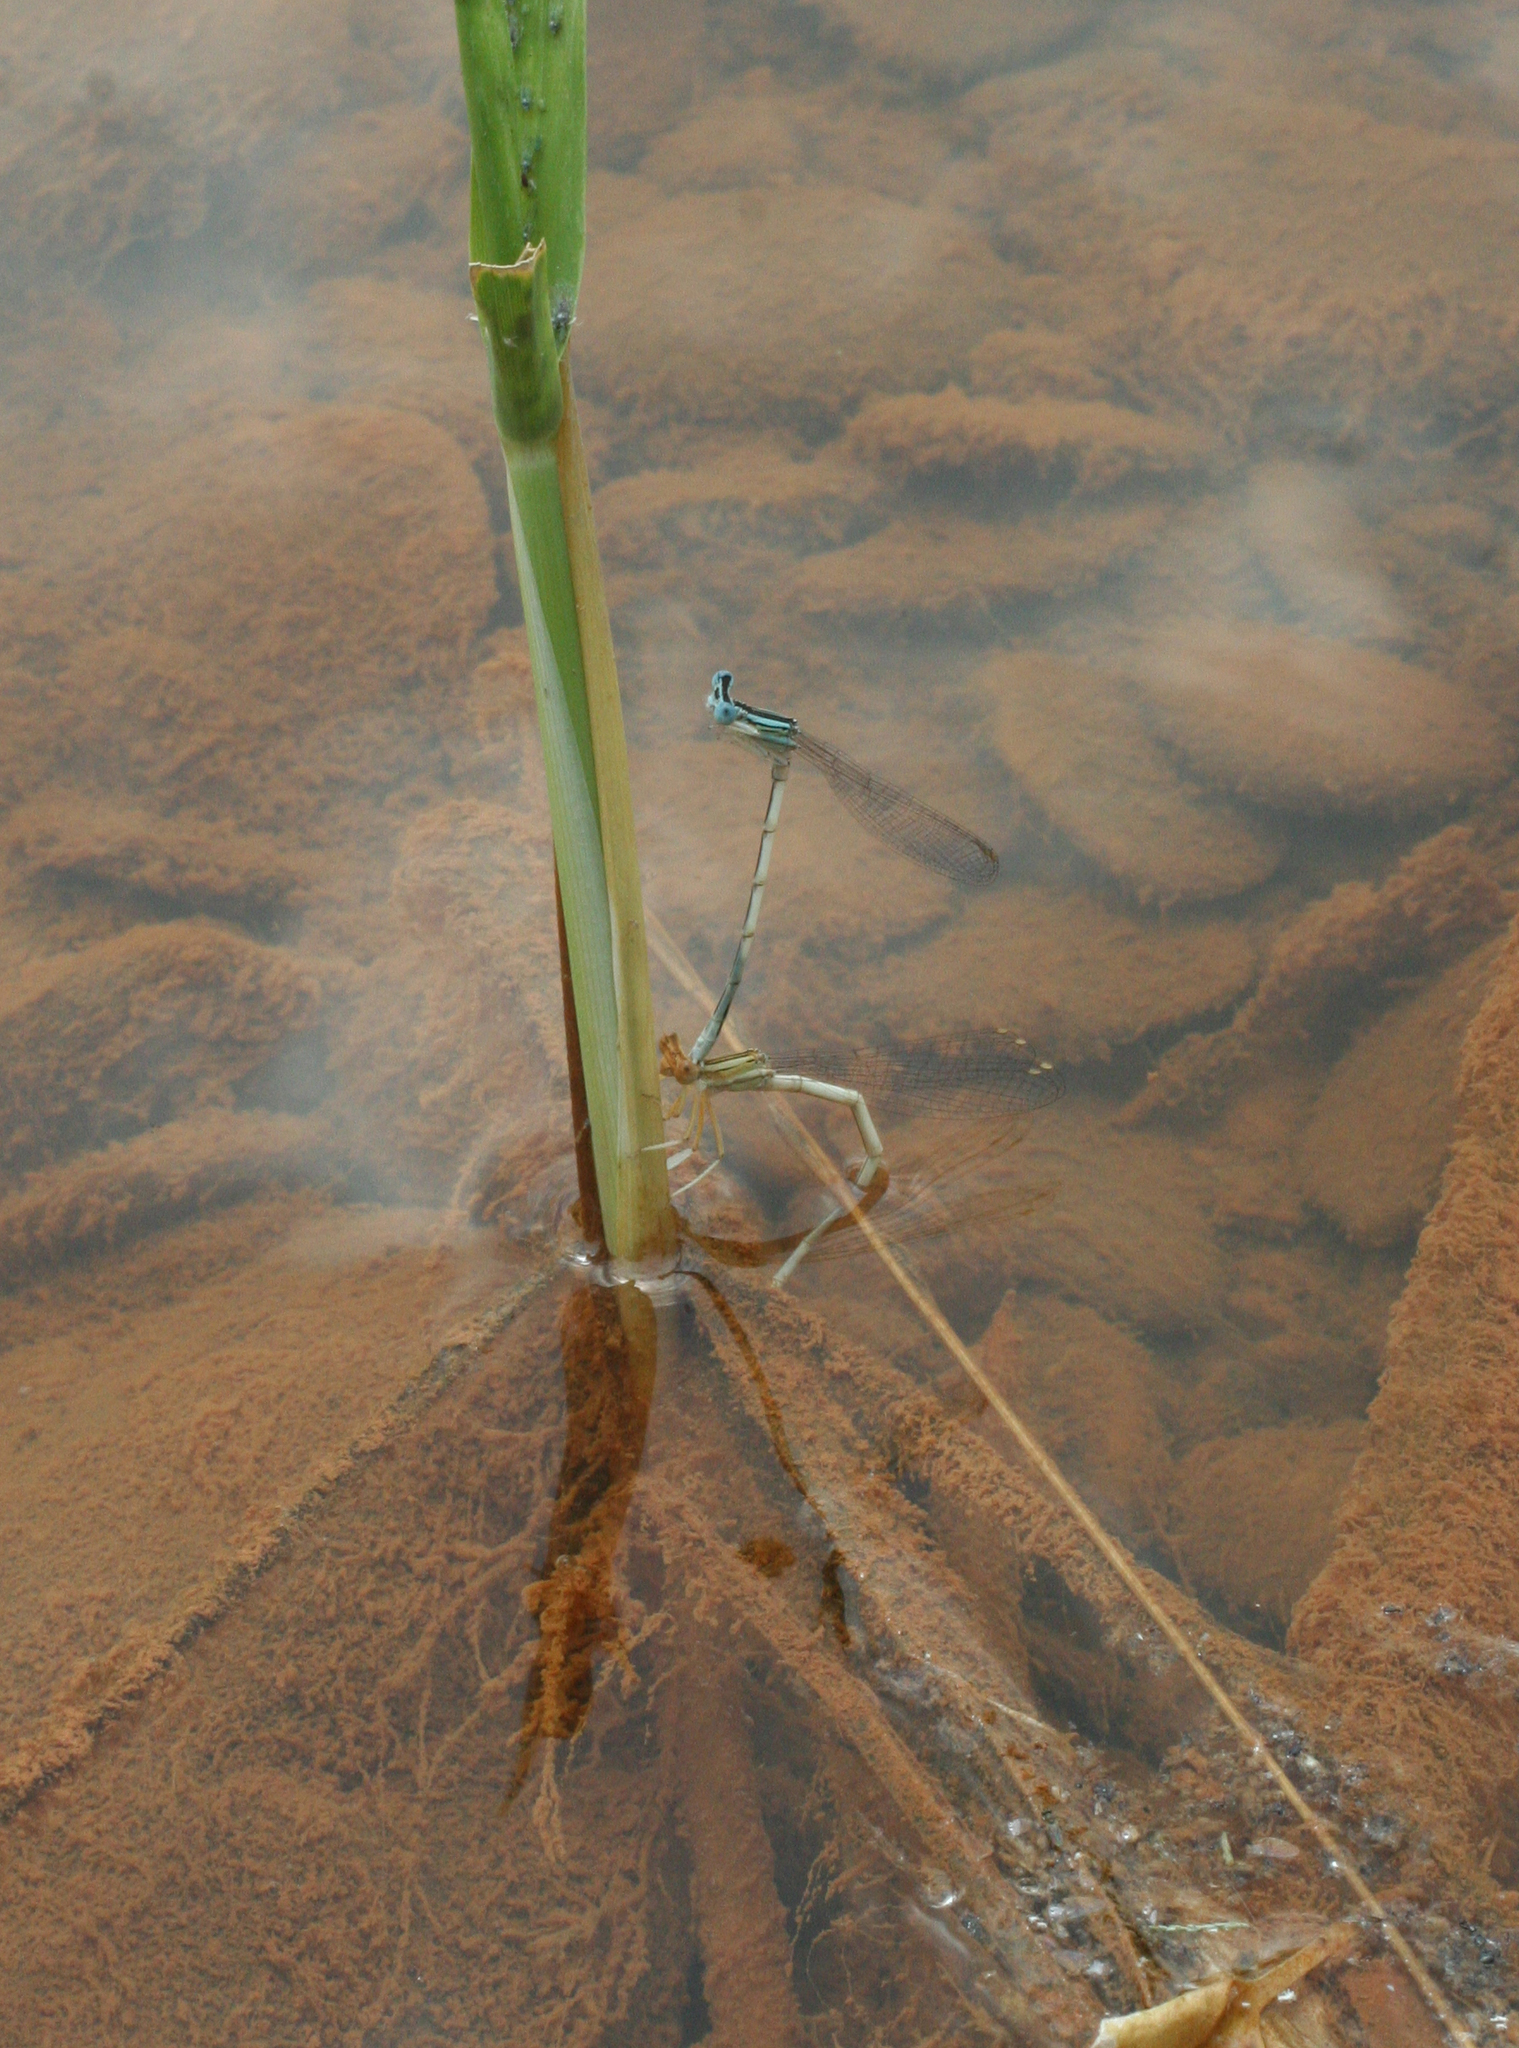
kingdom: Animalia
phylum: Arthropoda
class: Insecta
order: Odonata
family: Platycnemididae
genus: Platycnemis
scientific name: Platycnemis dealbata
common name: Ivory featherleg
